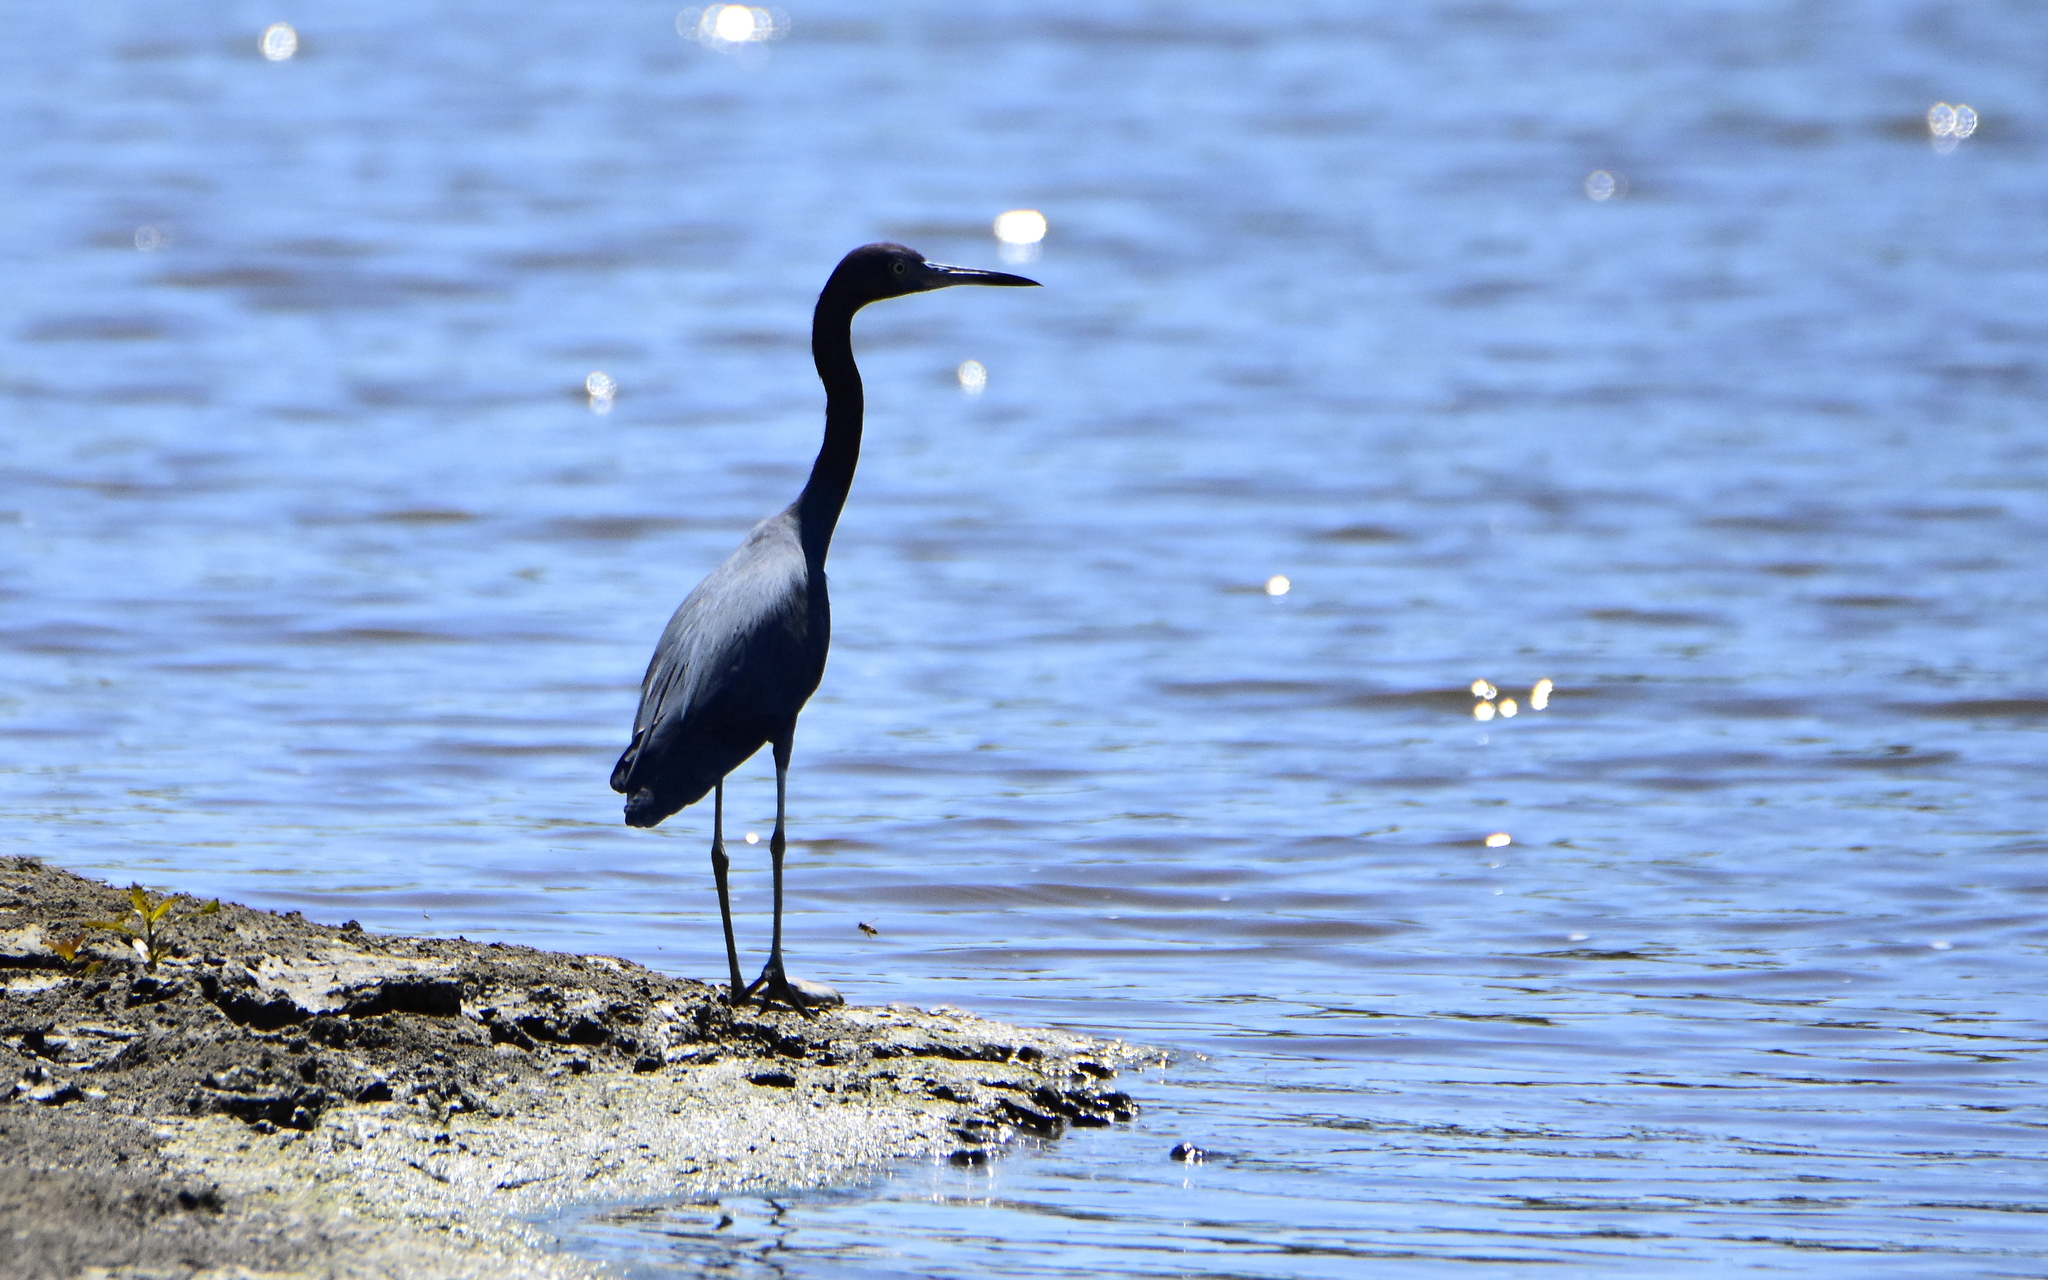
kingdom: Animalia
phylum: Chordata
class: Aves
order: Pelecaniformes
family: Ardeidae
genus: Egretta
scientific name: Egretta caerulea
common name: Little blue heron
